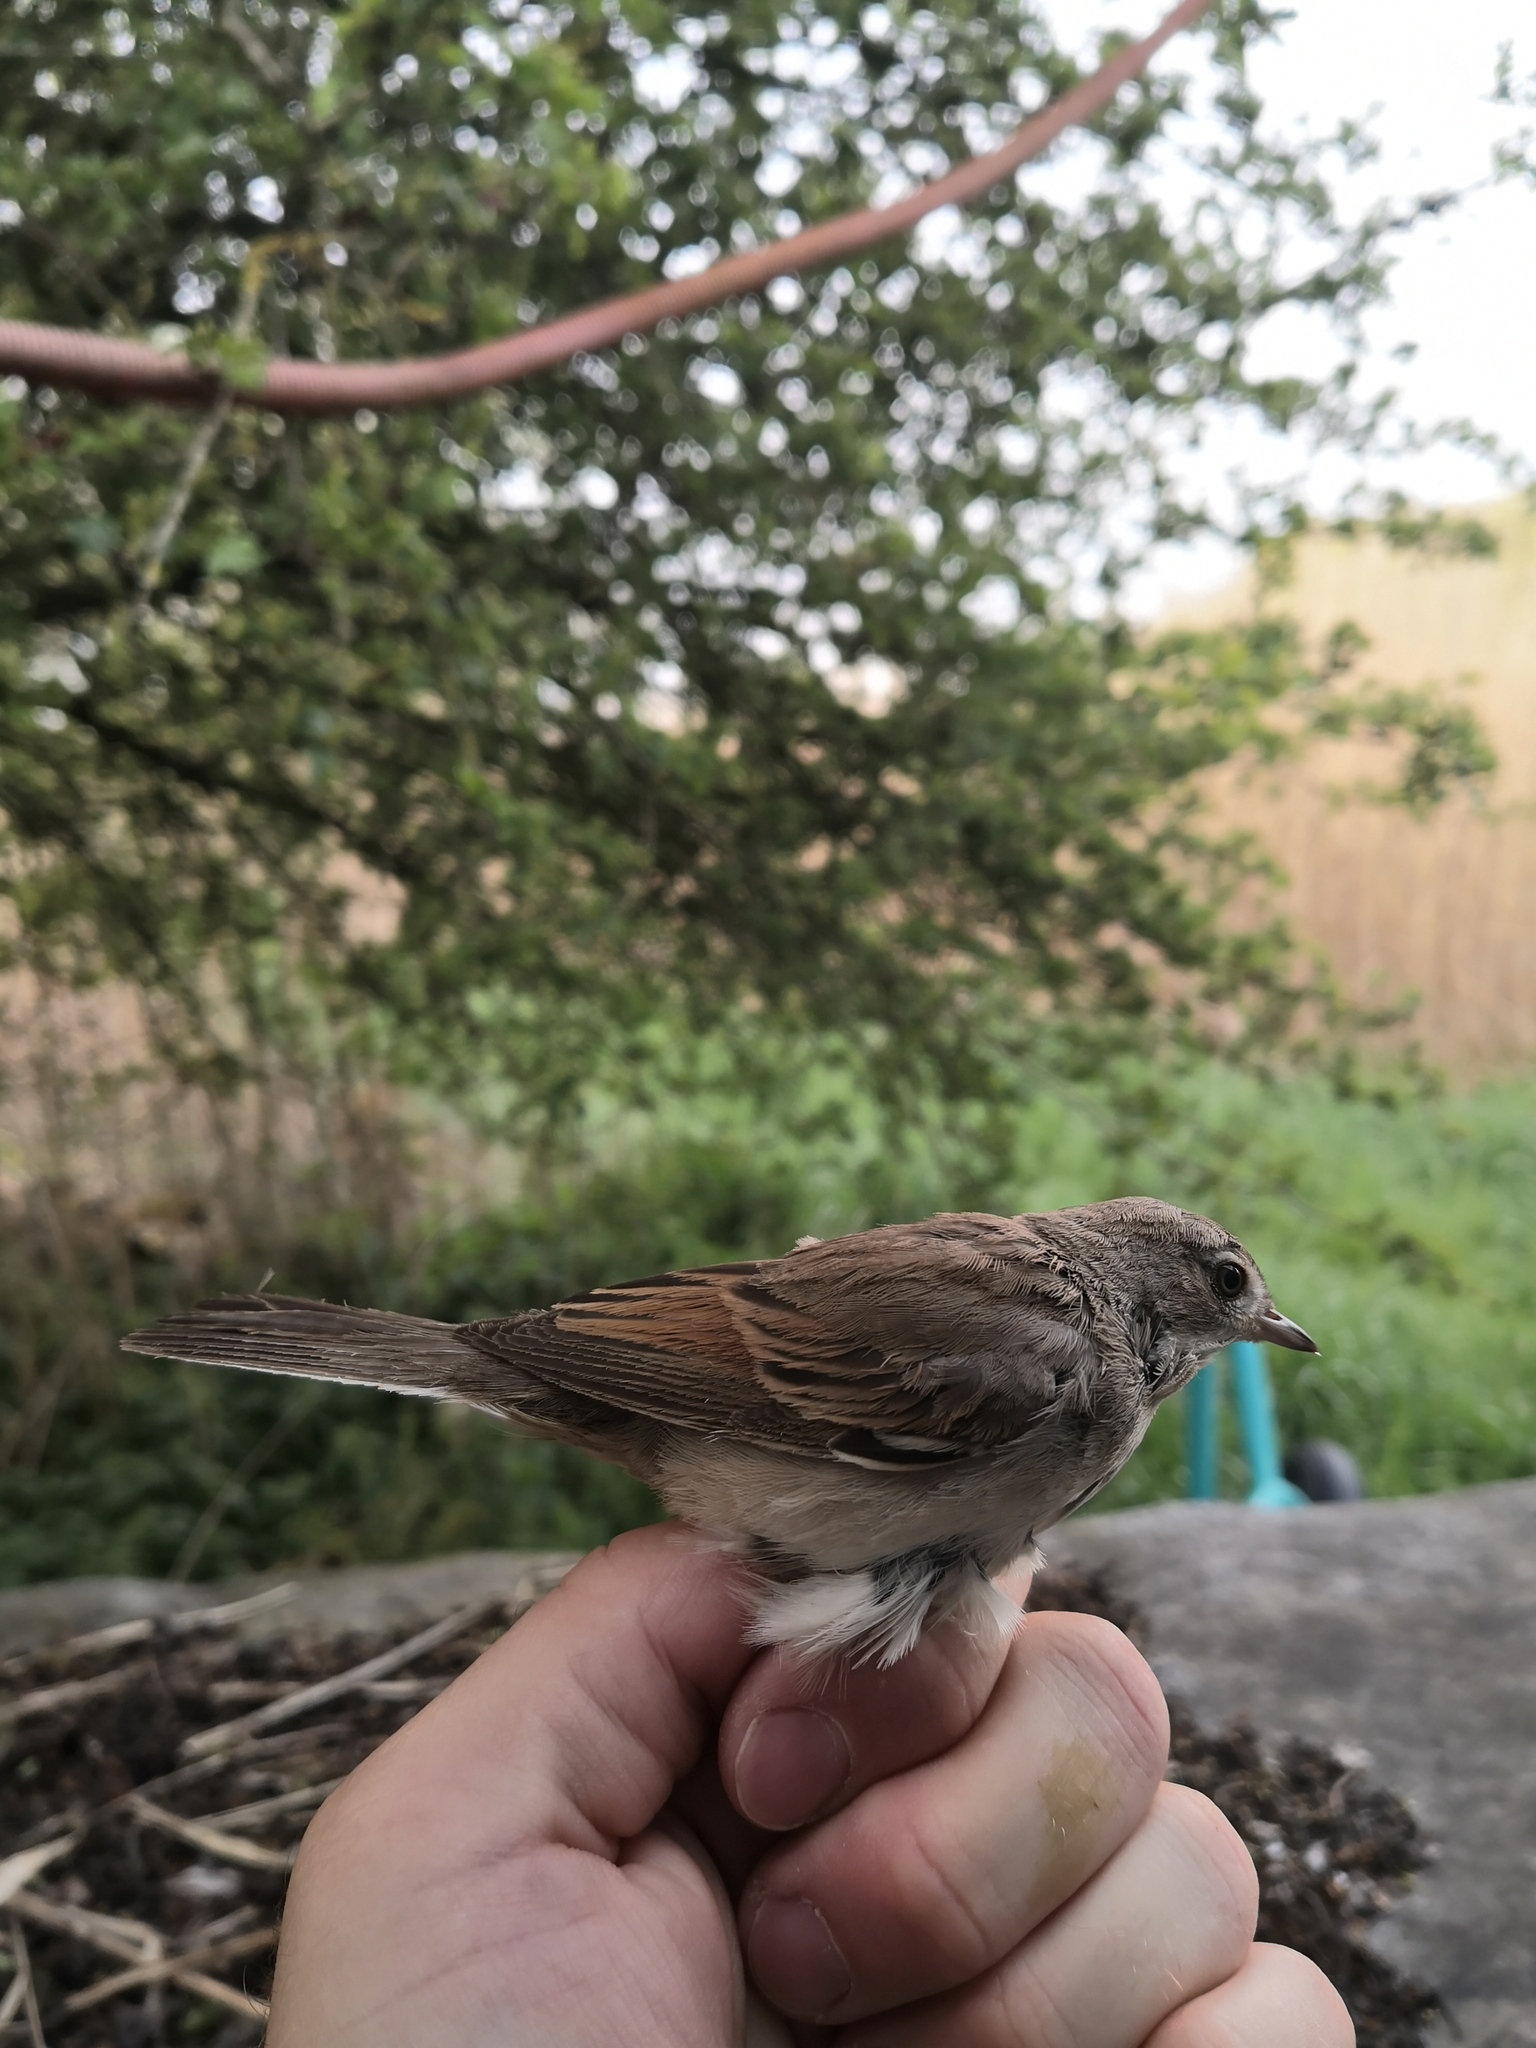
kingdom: Animalia
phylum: Chordata
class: Aves
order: Passeriformes
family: Sylviidae
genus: Sylvia
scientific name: Sylvia communis
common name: Common whitethroat
